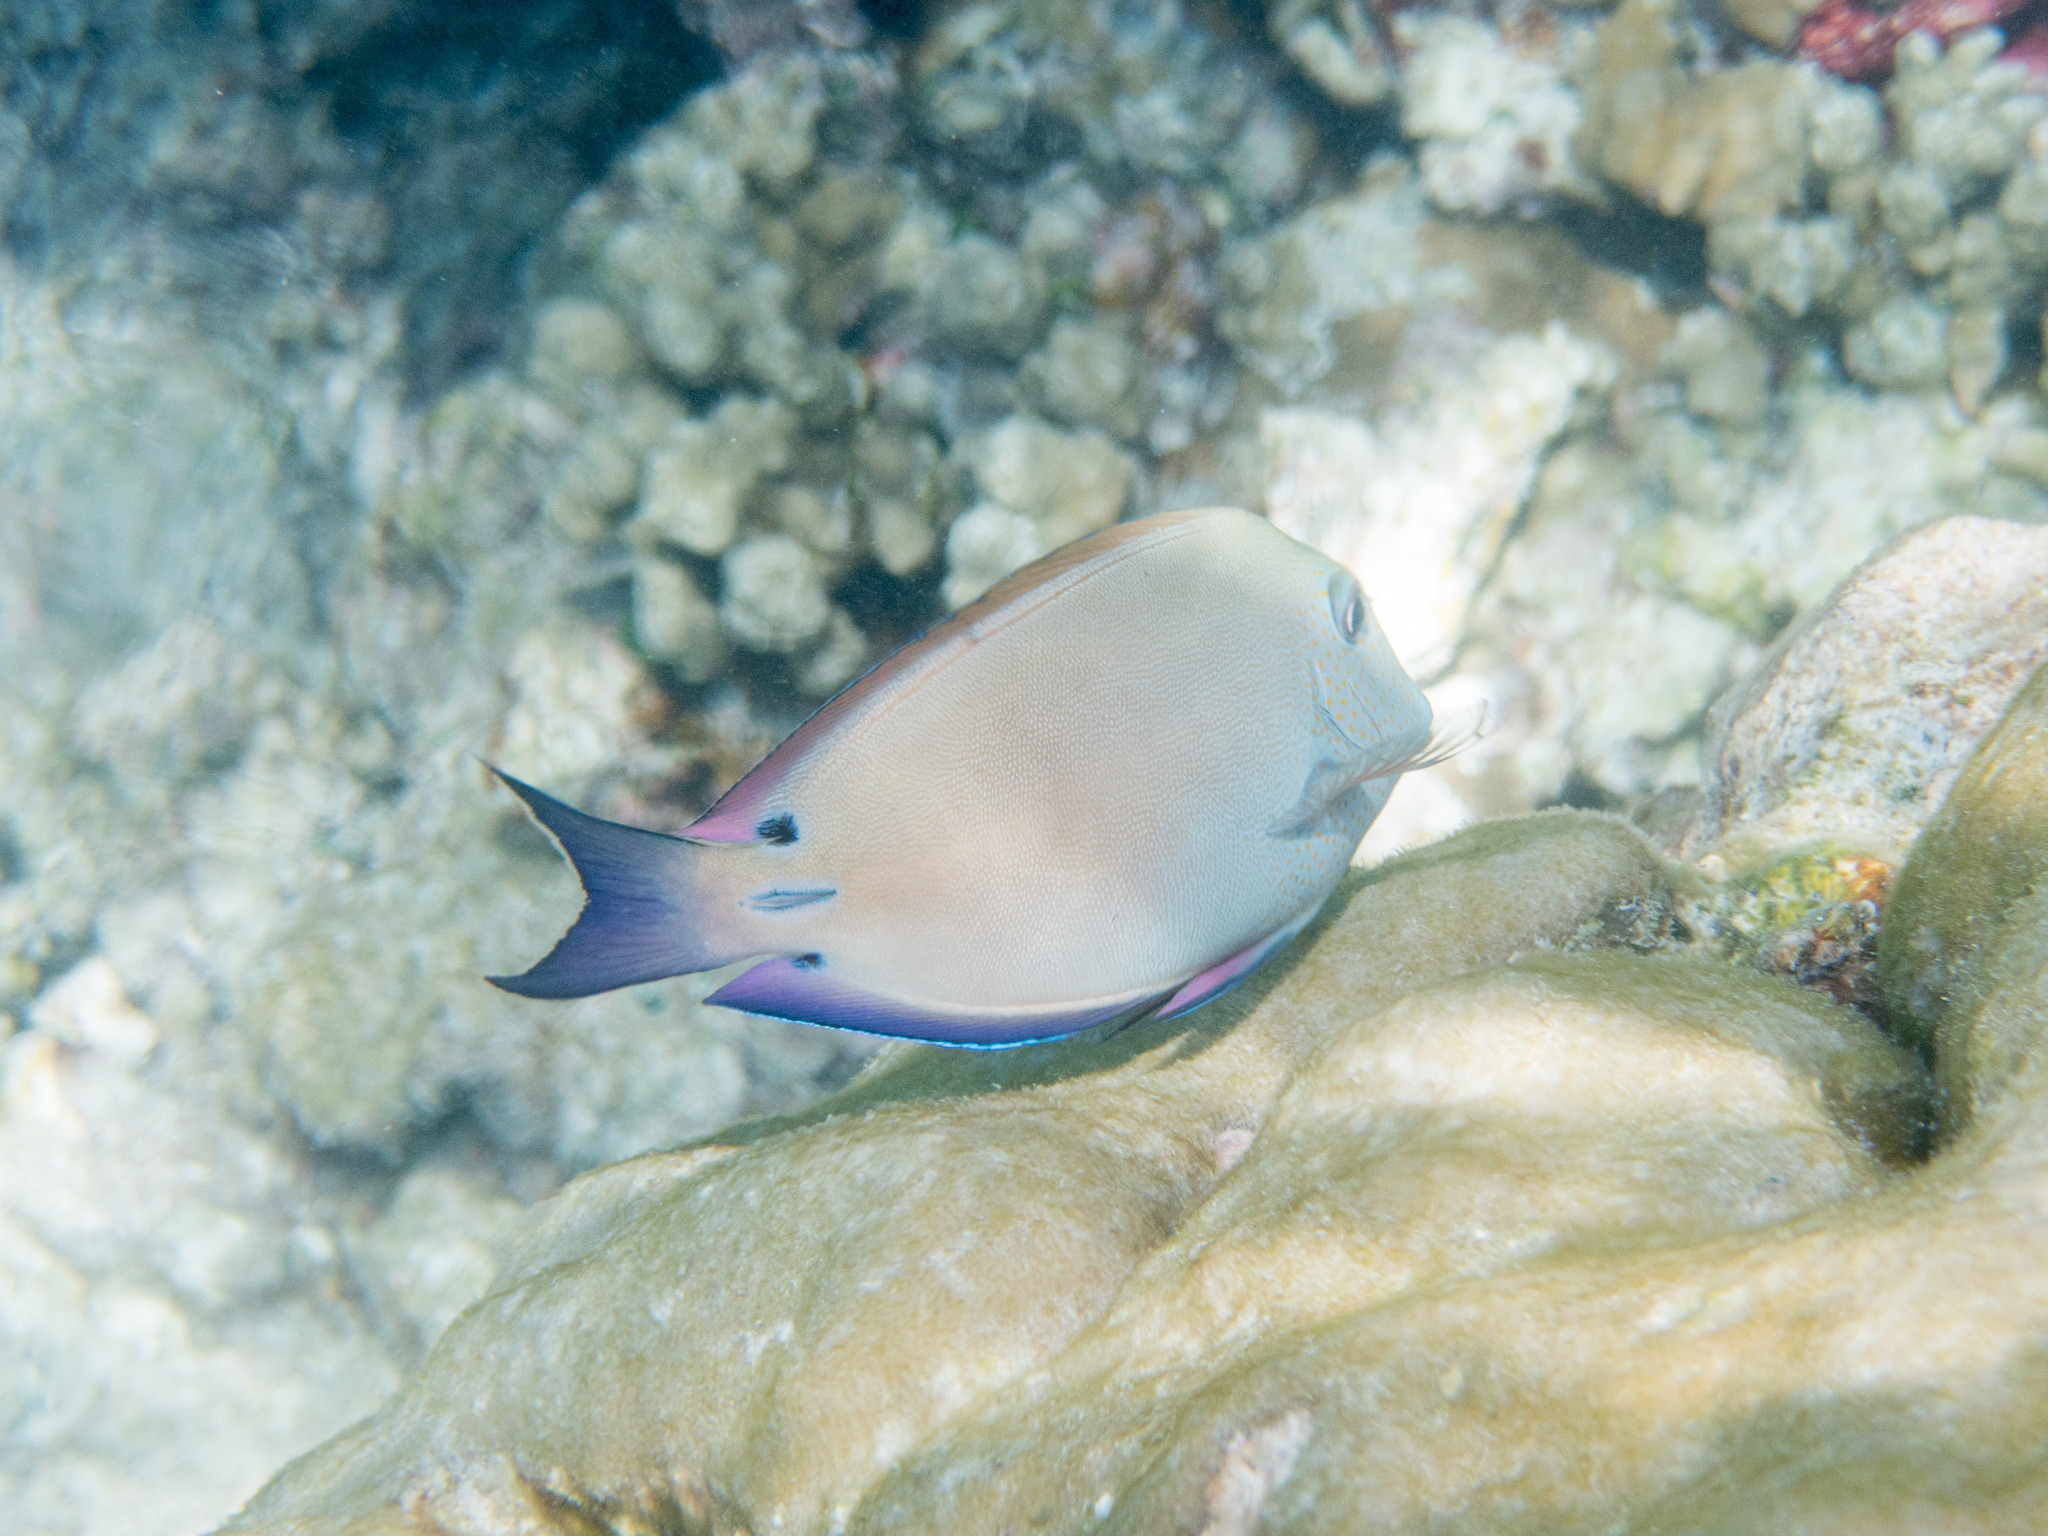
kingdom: Animalia
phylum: Chordata
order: Perciformes
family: Acanthuridae
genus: Acanthurus
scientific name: Acanthurus nigrofuscus
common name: Blackspot surgeonfish
